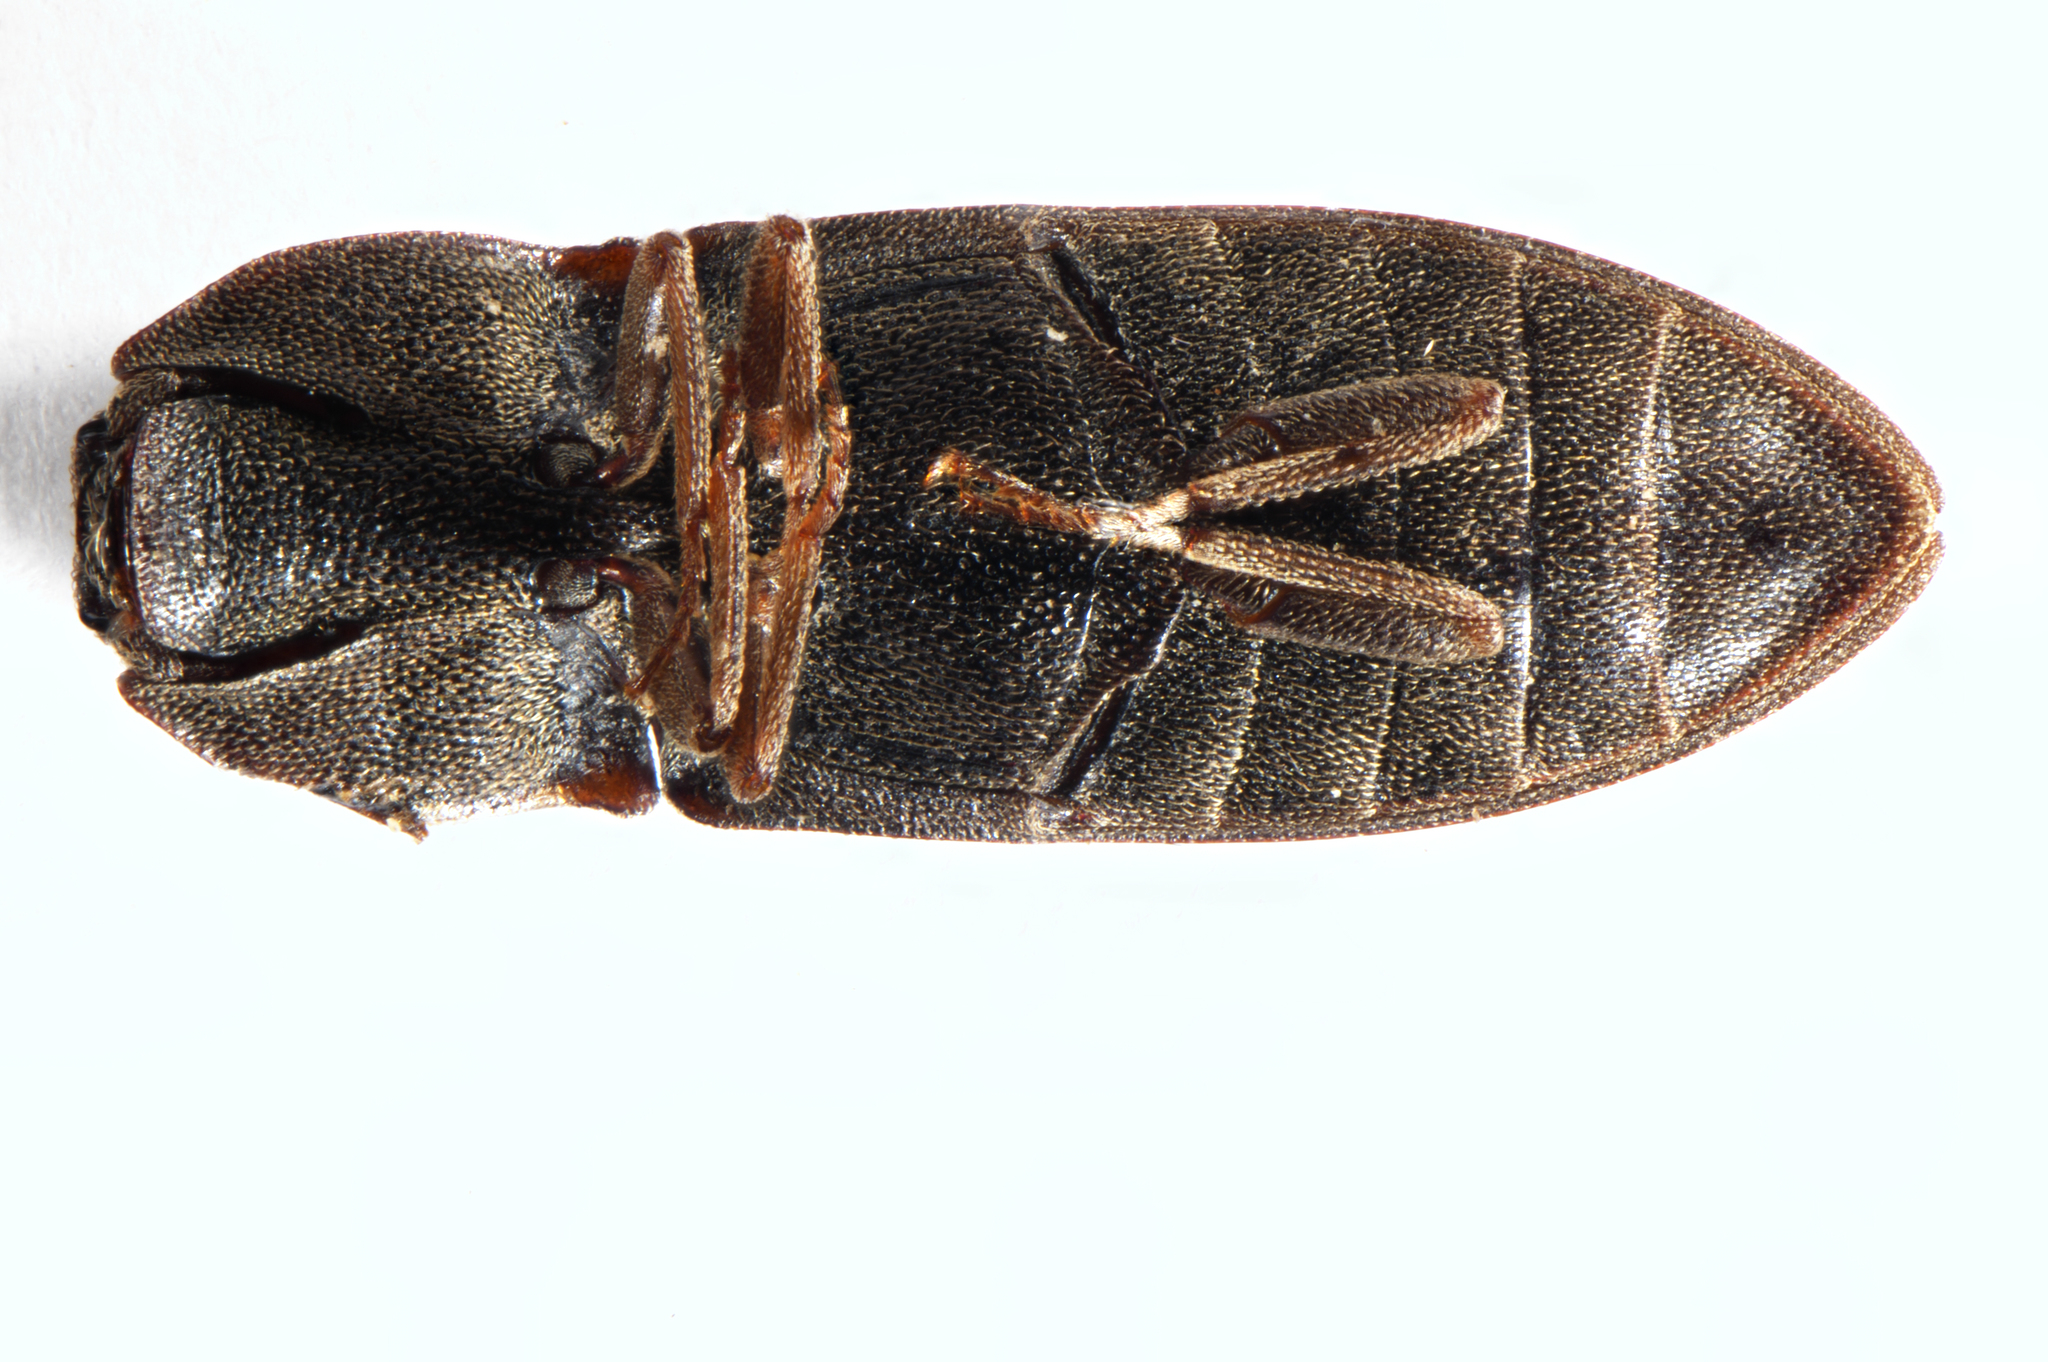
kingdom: Animalia
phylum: Arthropoda
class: Insecta
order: Coleoptera
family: Elateridae
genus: Agrypnus
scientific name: Agrypnus
